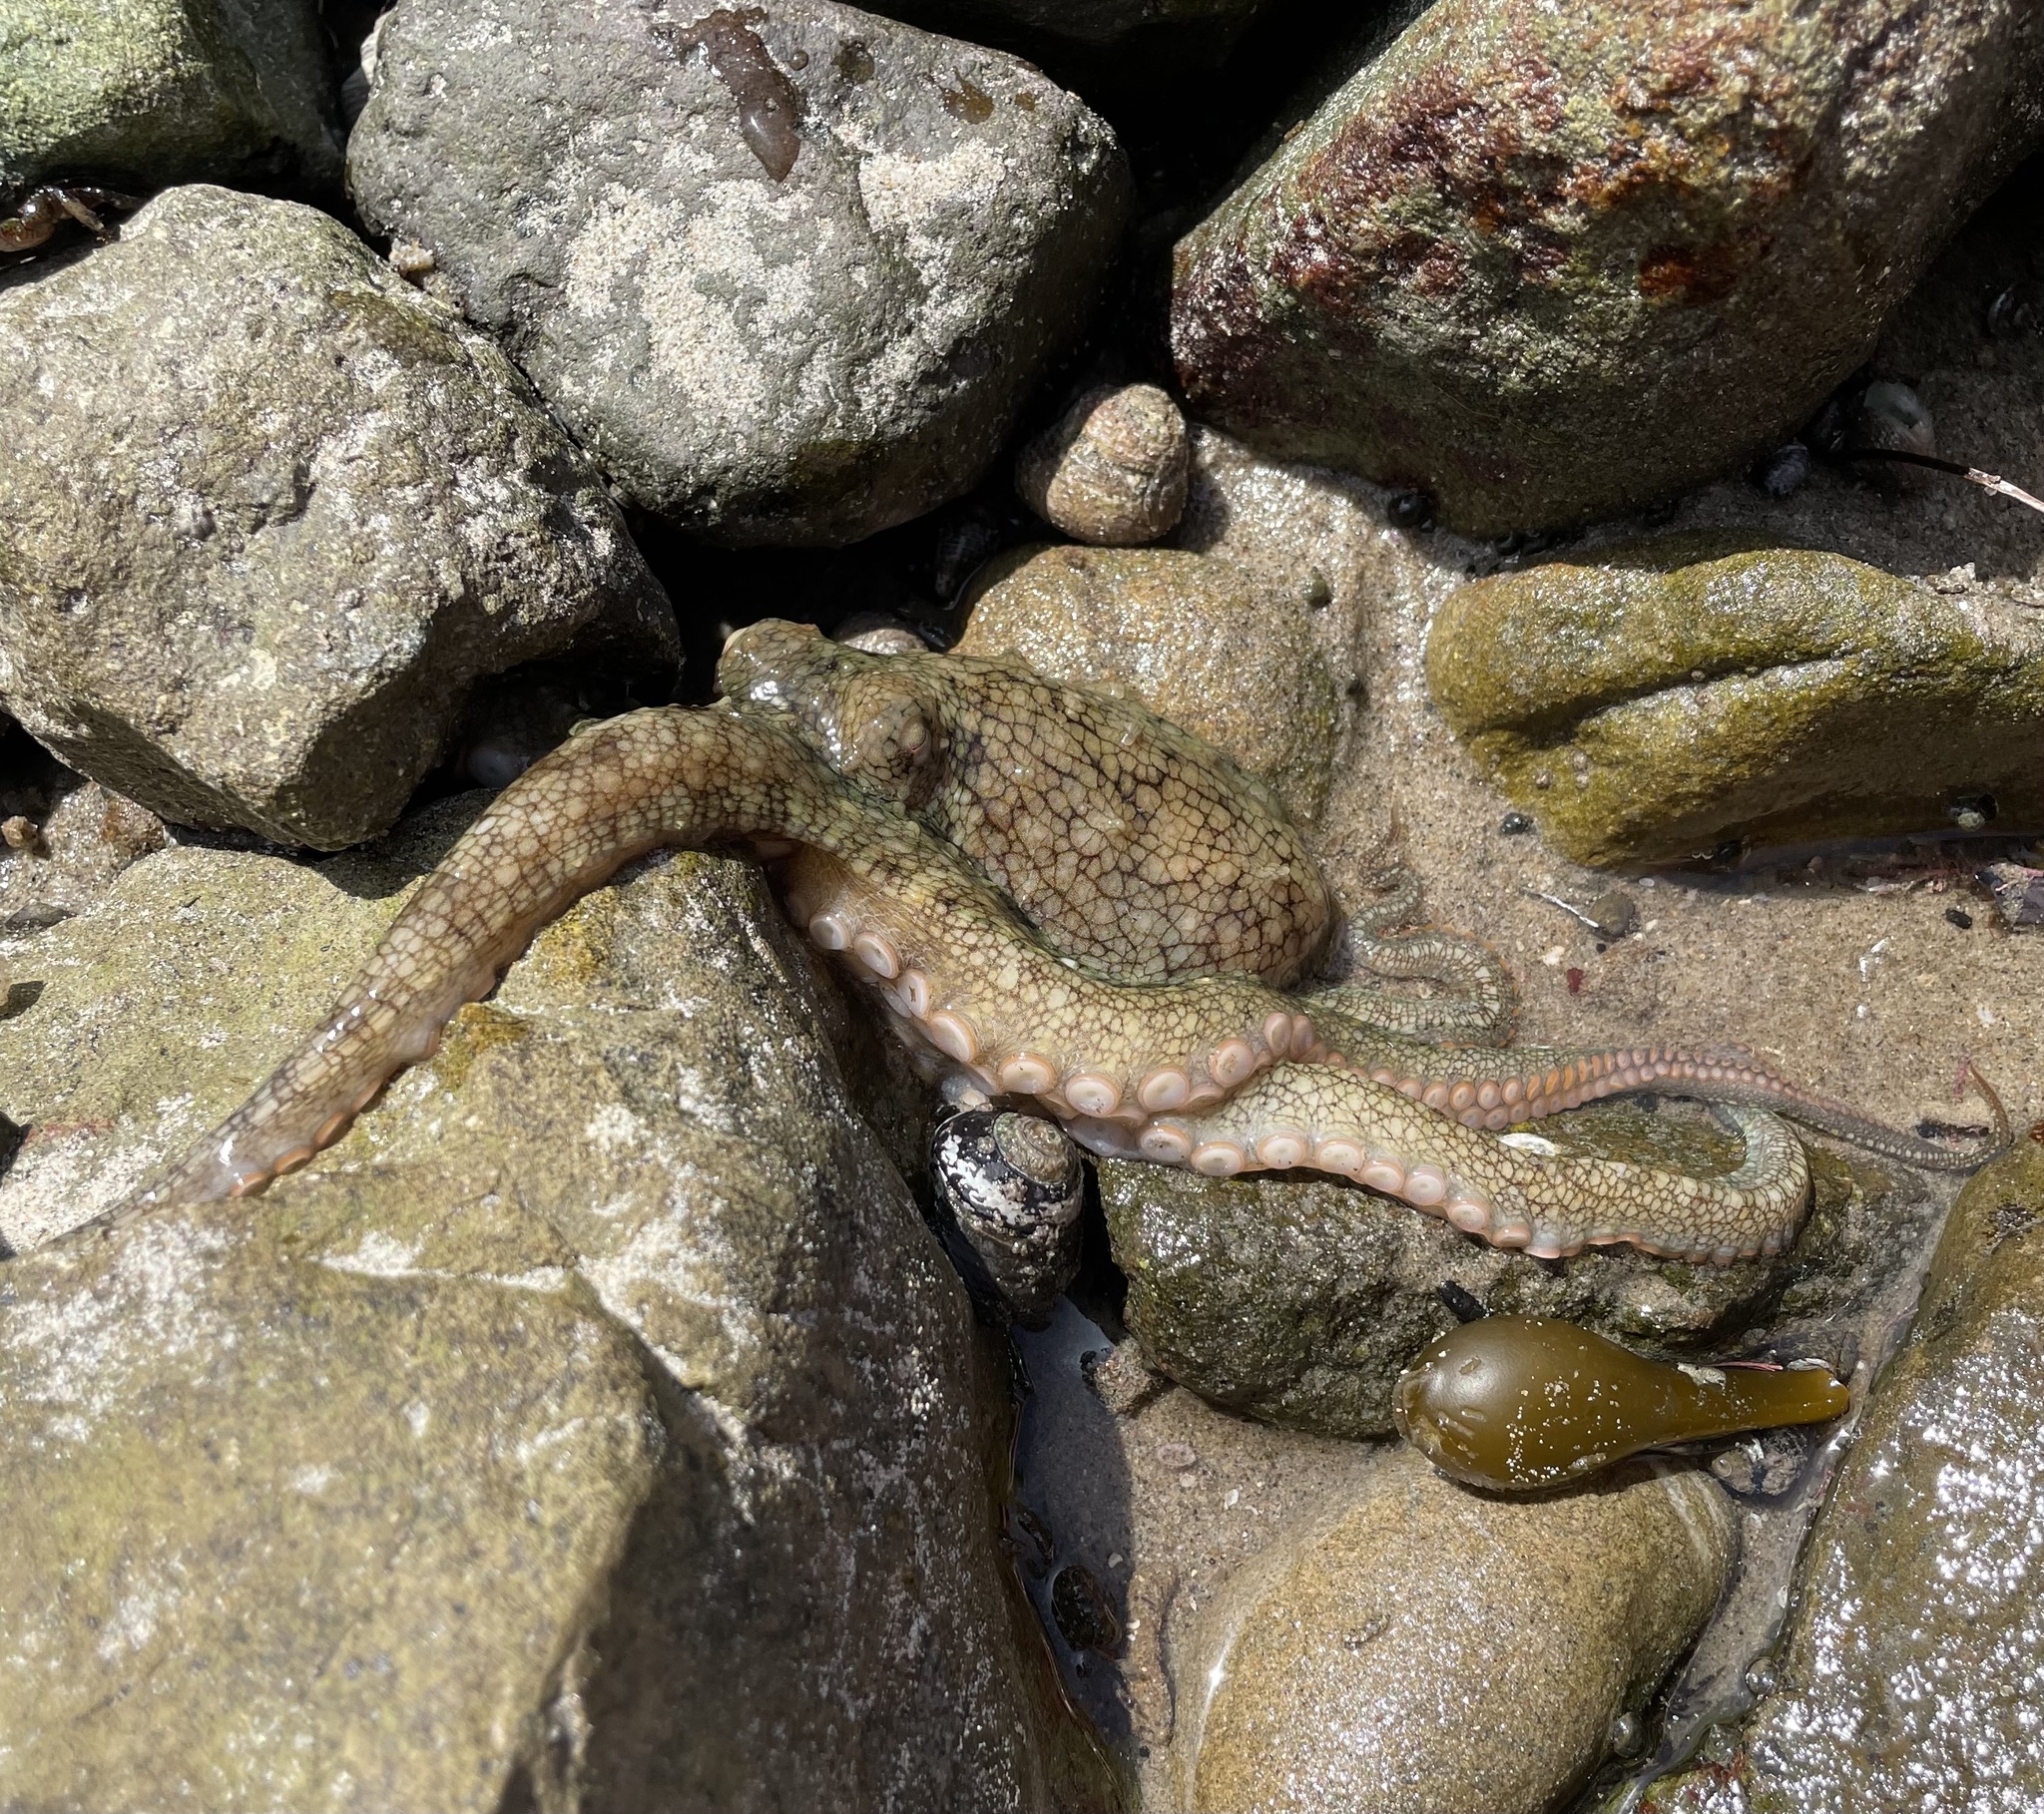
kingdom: Animalia
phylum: Mollusca
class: Cephalopoda
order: Octopoda
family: Octopodidae
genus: Octopus
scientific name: Octopus bimaculoides
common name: California two-spot octopus
